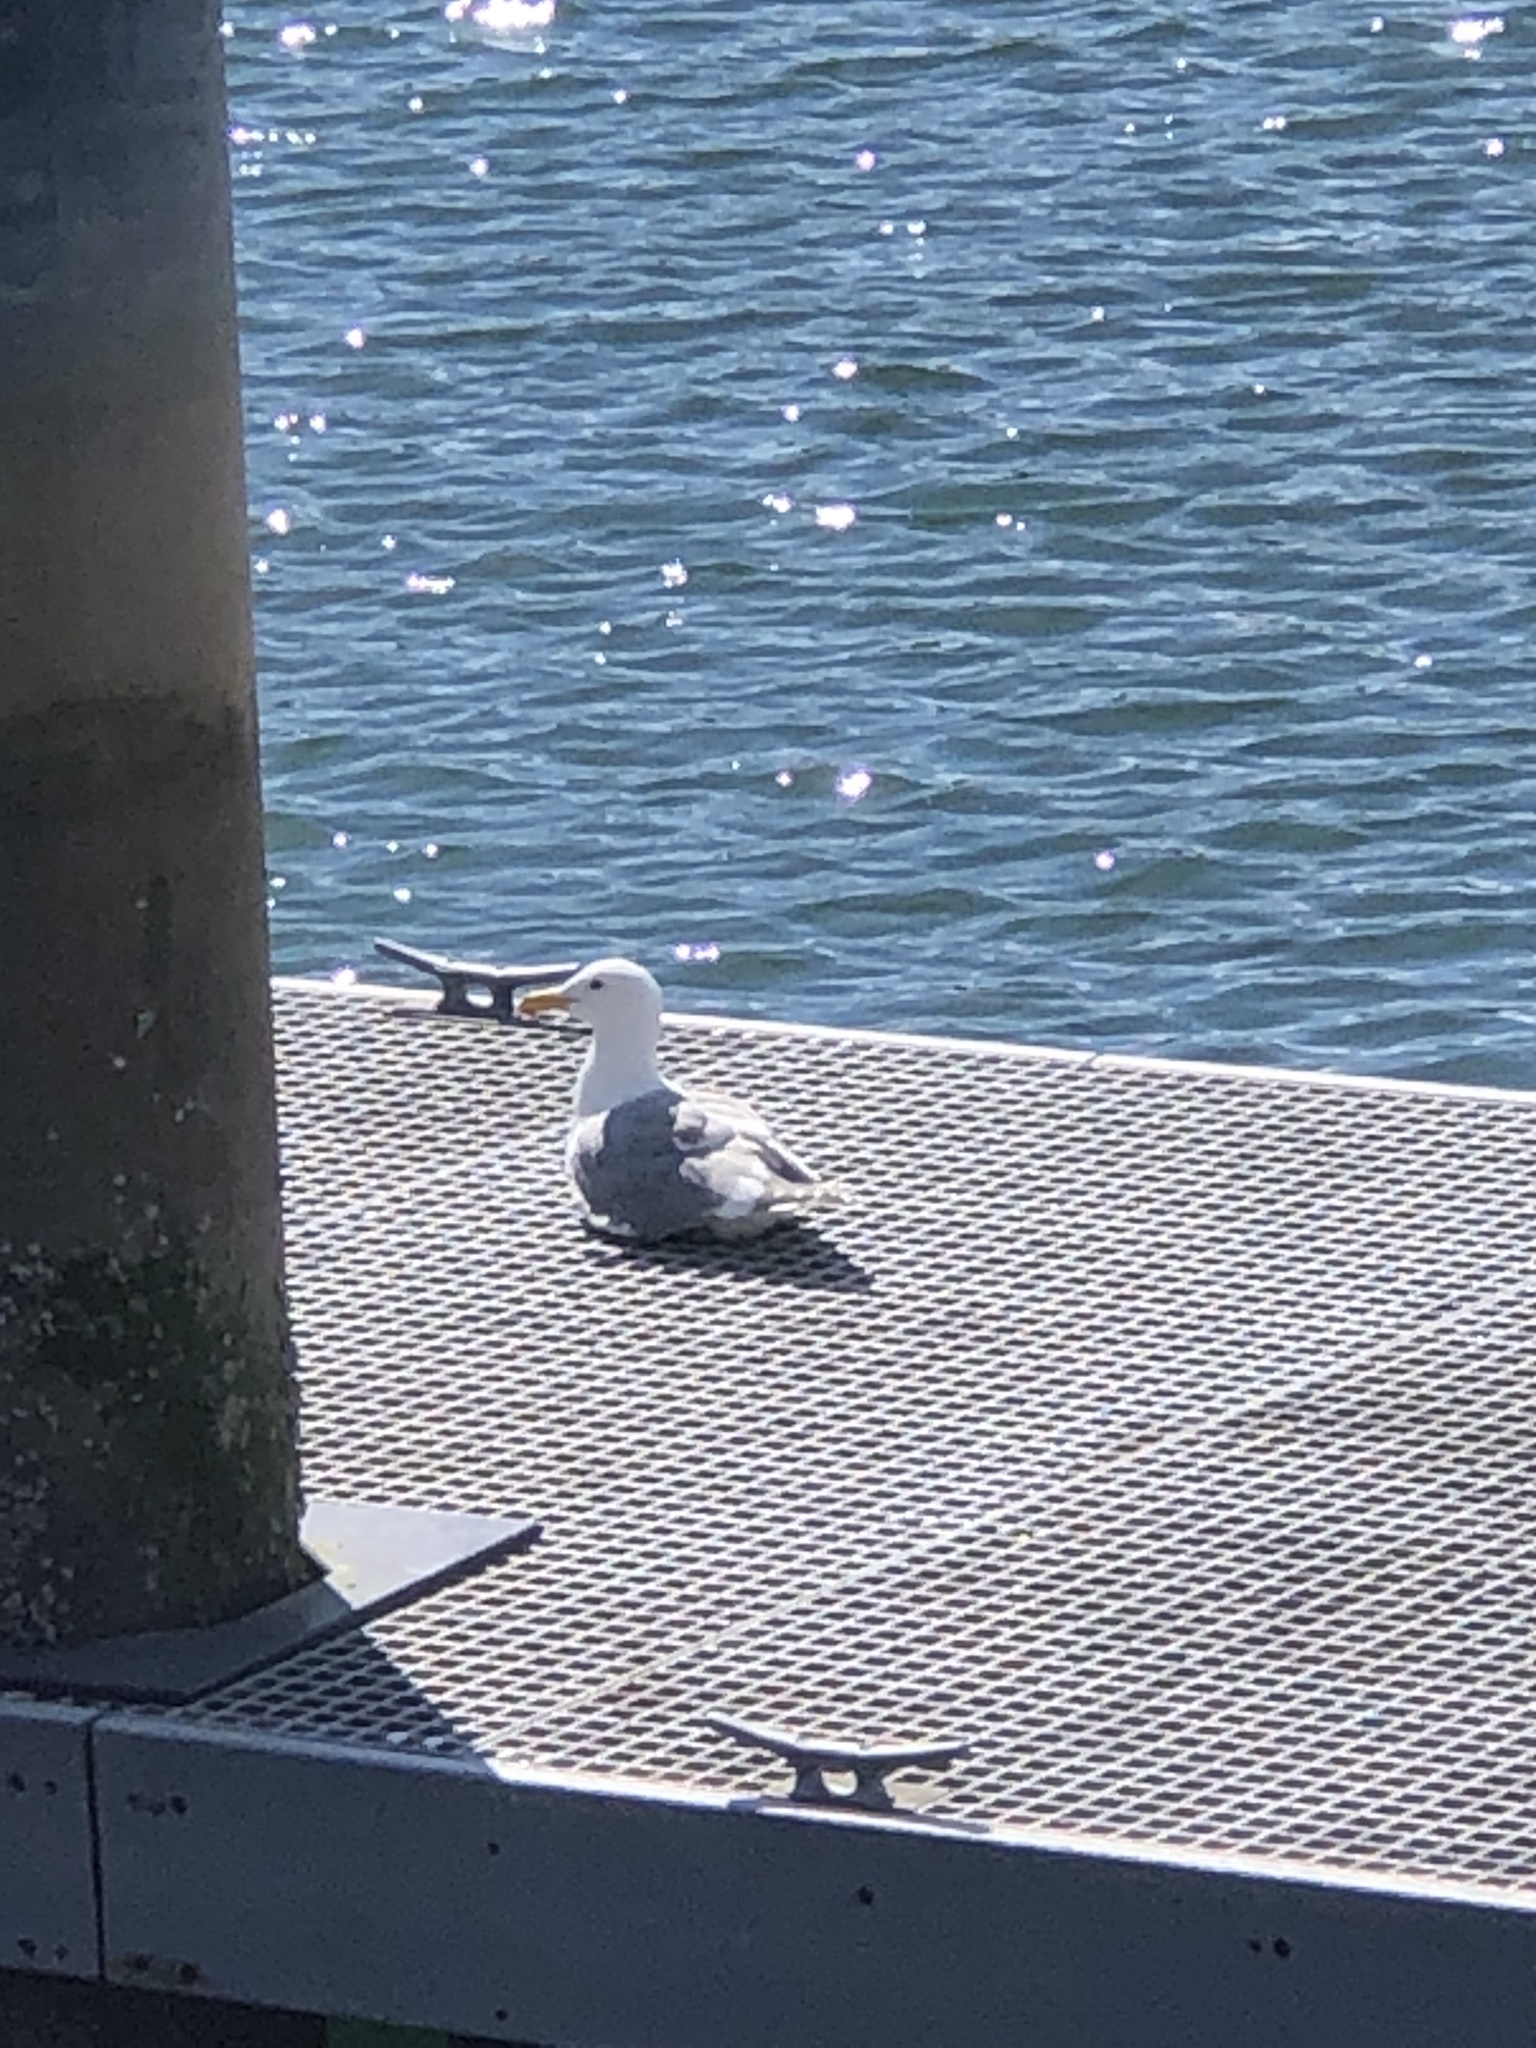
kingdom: Animalia
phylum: Chordata
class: Aves
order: Charadriiformes
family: Laridae
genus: Larus
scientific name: Larus glaucescens
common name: Glaucous-winged gull
